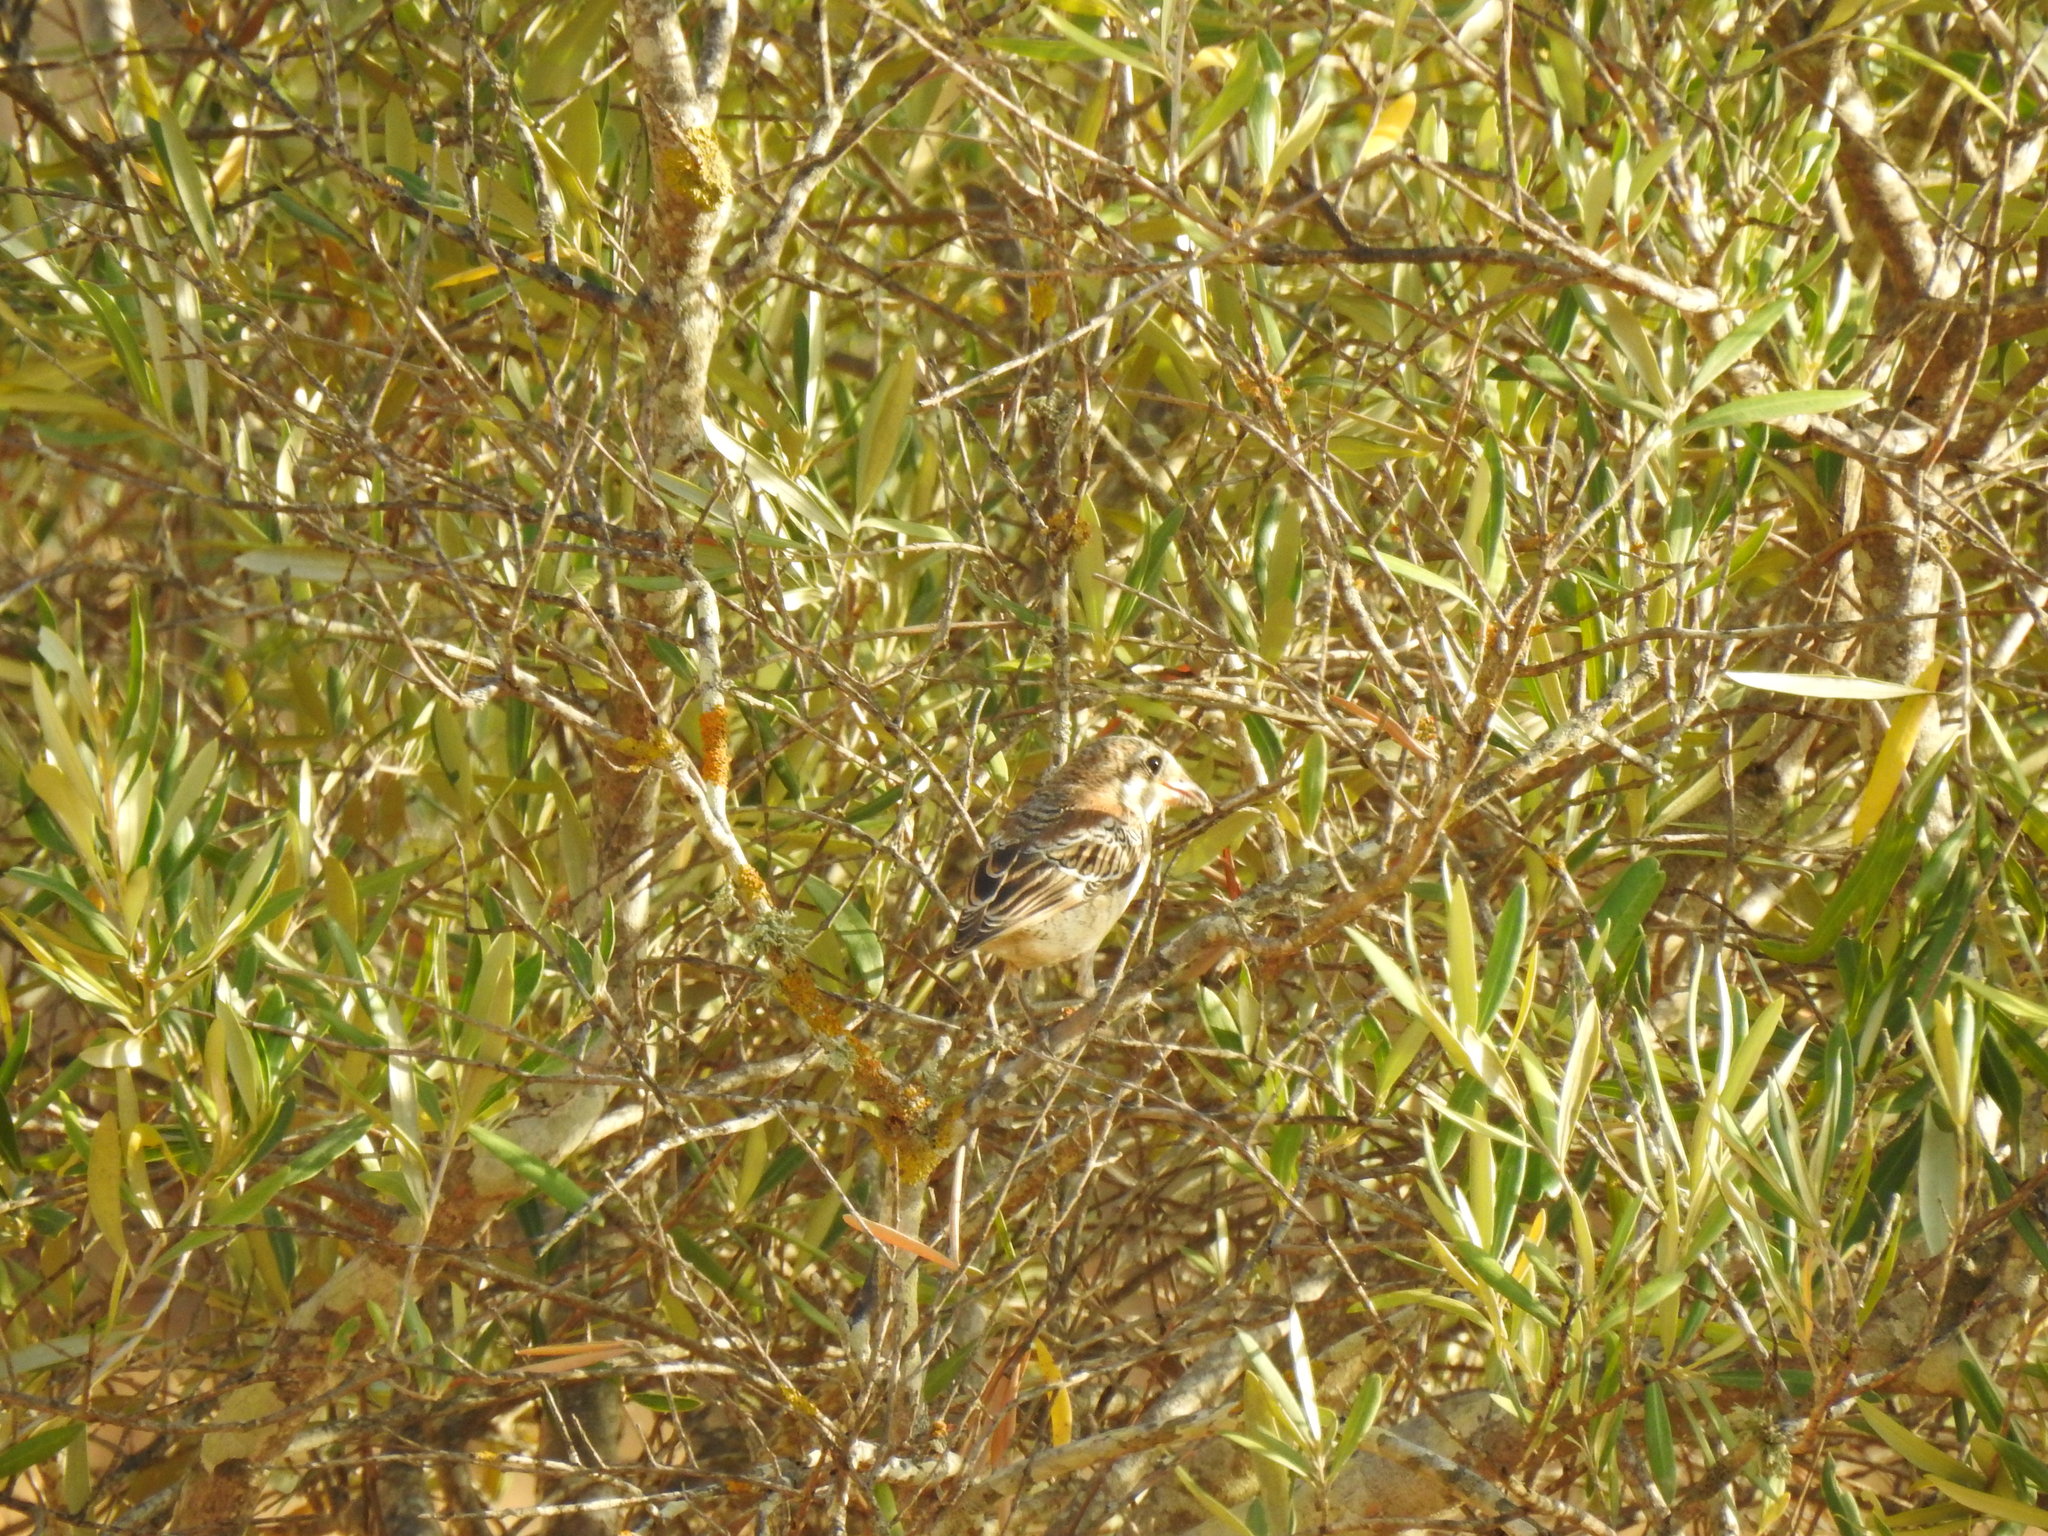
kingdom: Animalia
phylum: Chordata
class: Aves
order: Passeriformes
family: Laniidae
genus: Lanius
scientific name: Lanius senator
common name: Woodchat shrike
